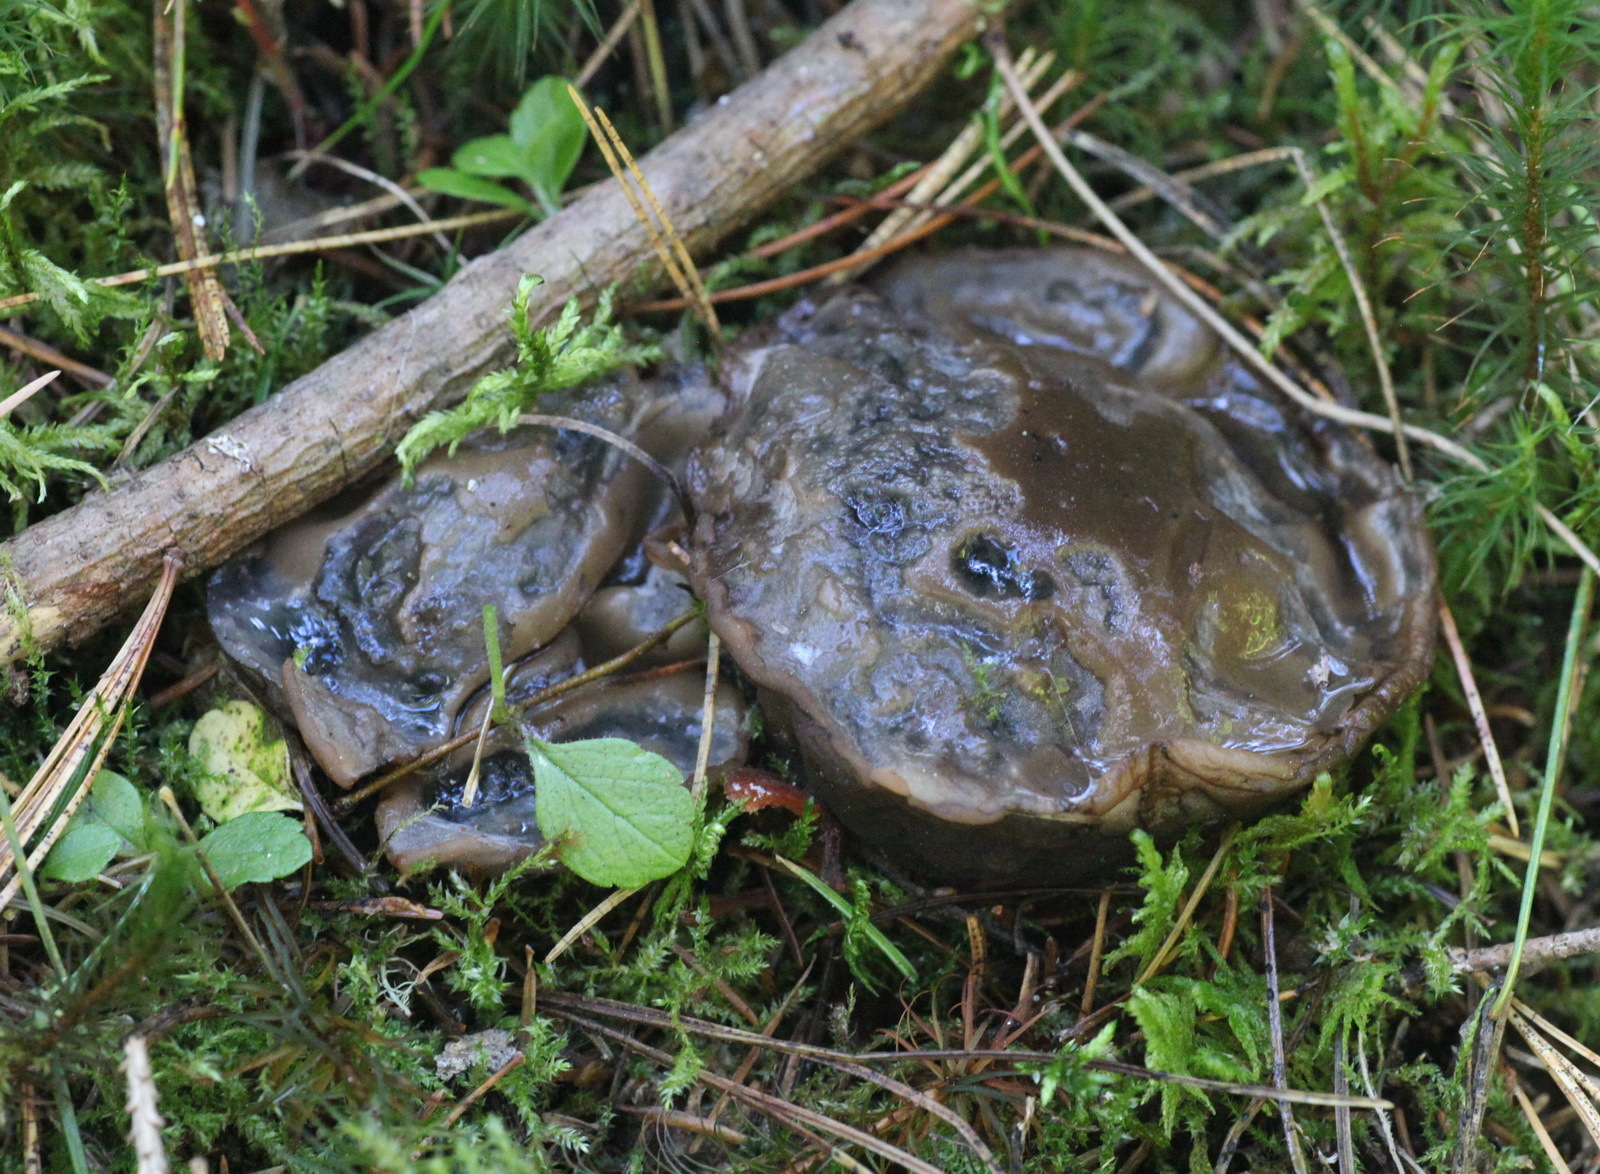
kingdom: Fungi
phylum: Ascomycota
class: Pezizomycetes
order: Pezizales
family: Sarcosomataceae
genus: Sarcosoma
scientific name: Sarcosoma globosum
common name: Charred-pancake cup
